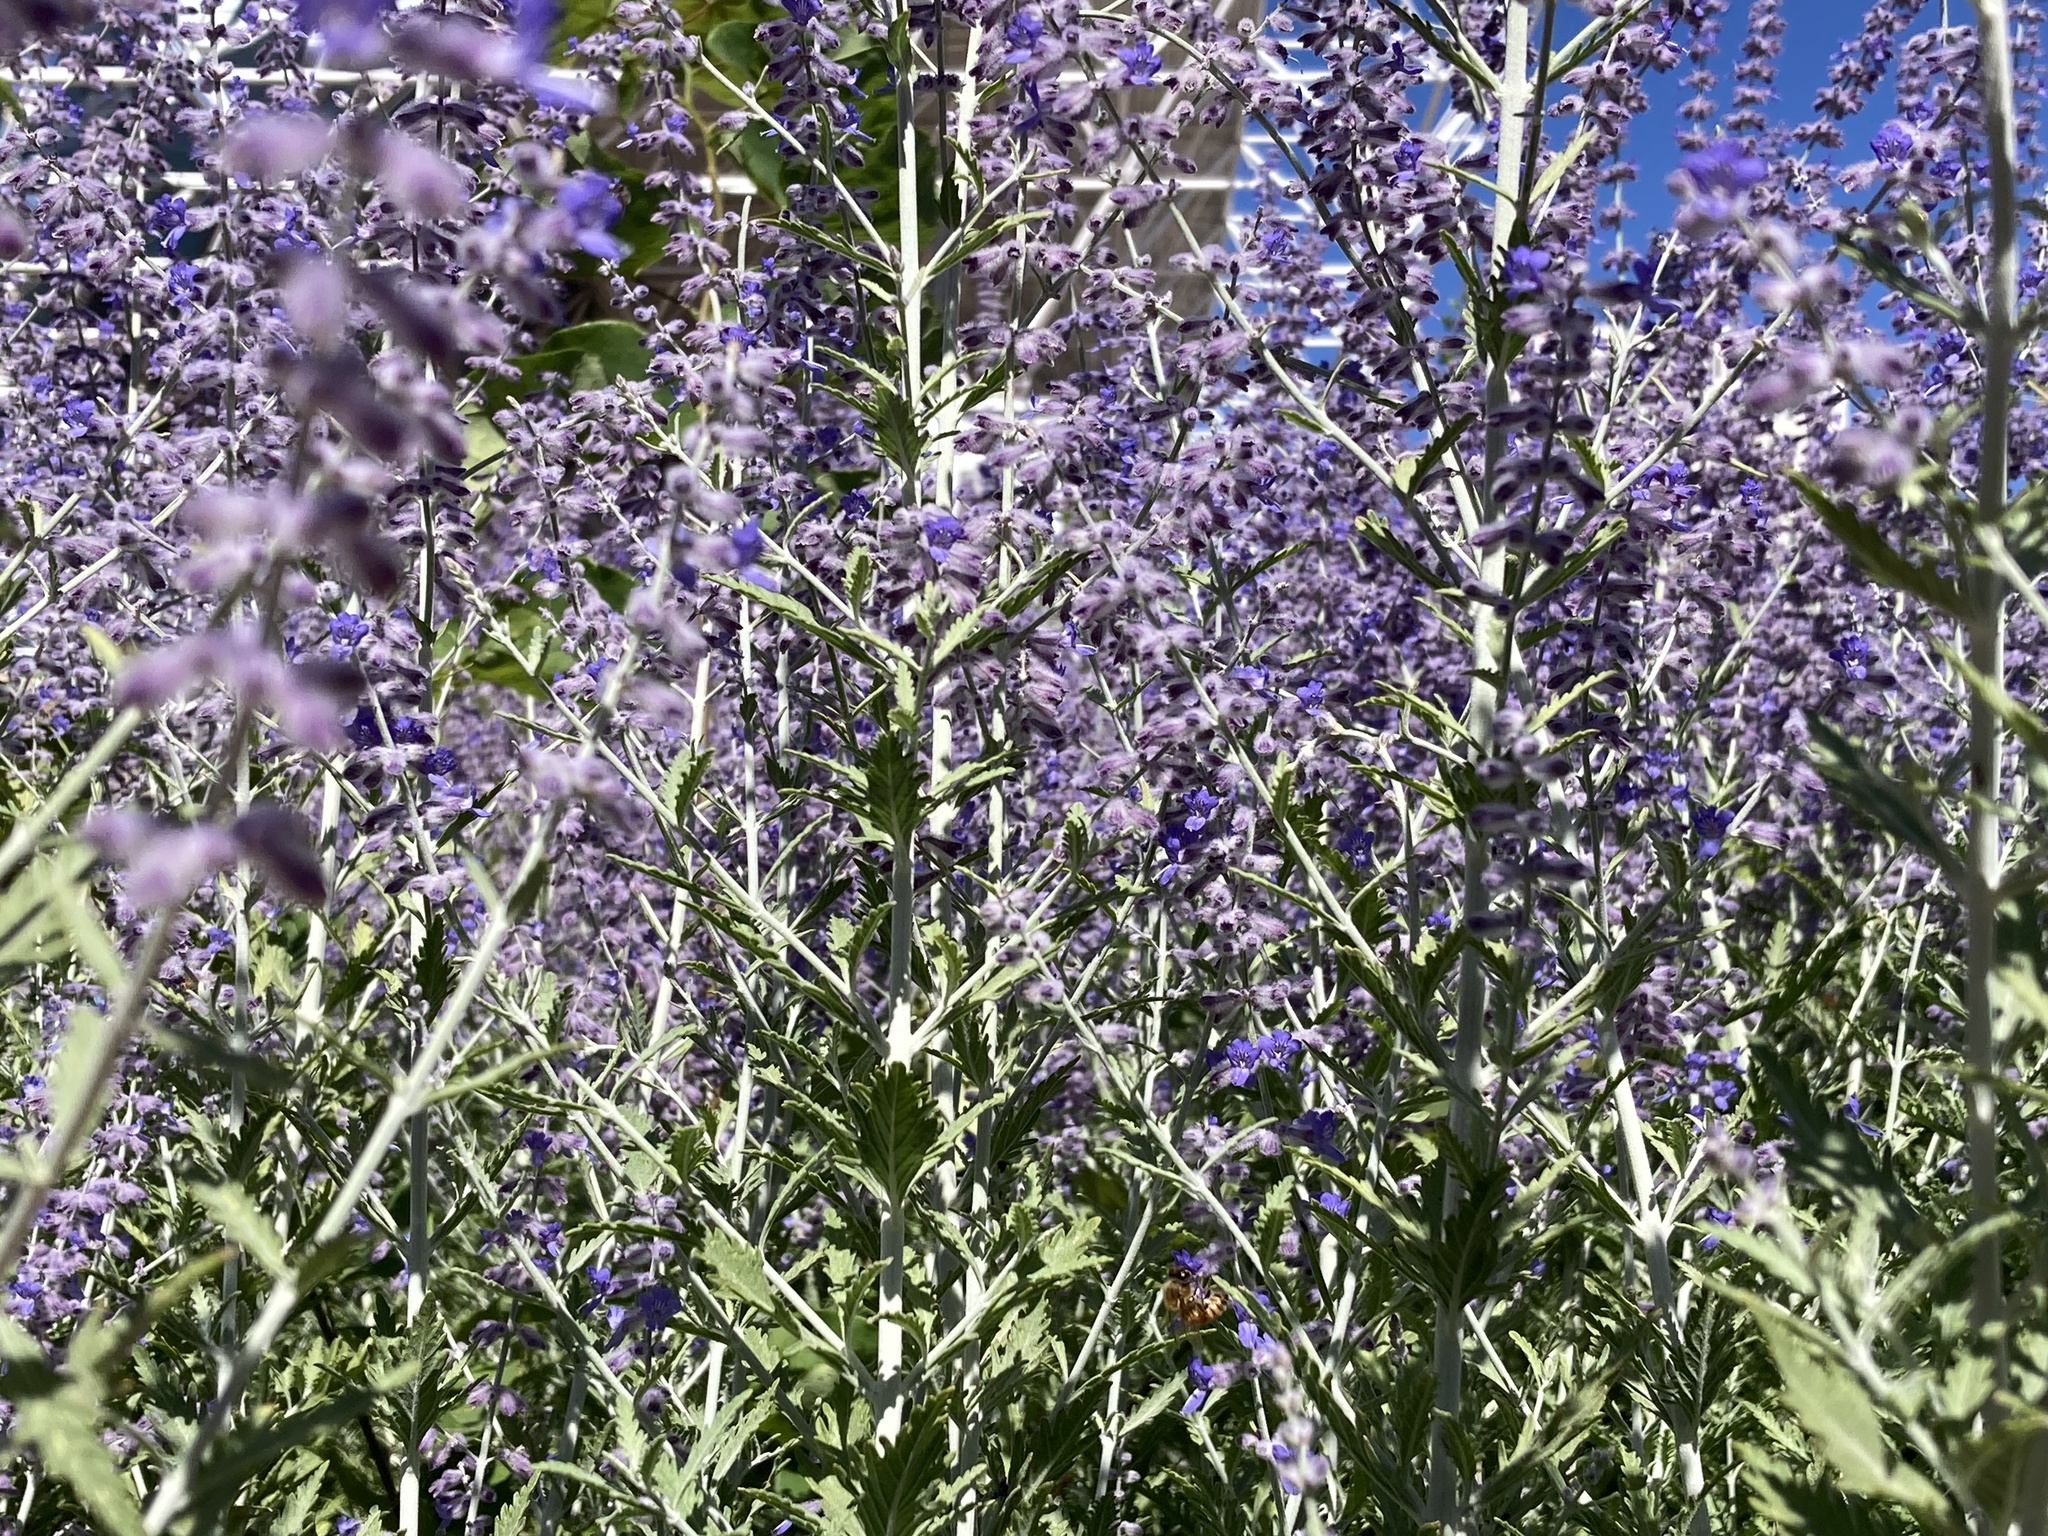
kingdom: Animalia
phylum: Arthropoda
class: Insecta
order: Hymenoptera
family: Apidae
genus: Apis
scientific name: Apis mellifera
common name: Honey bee
